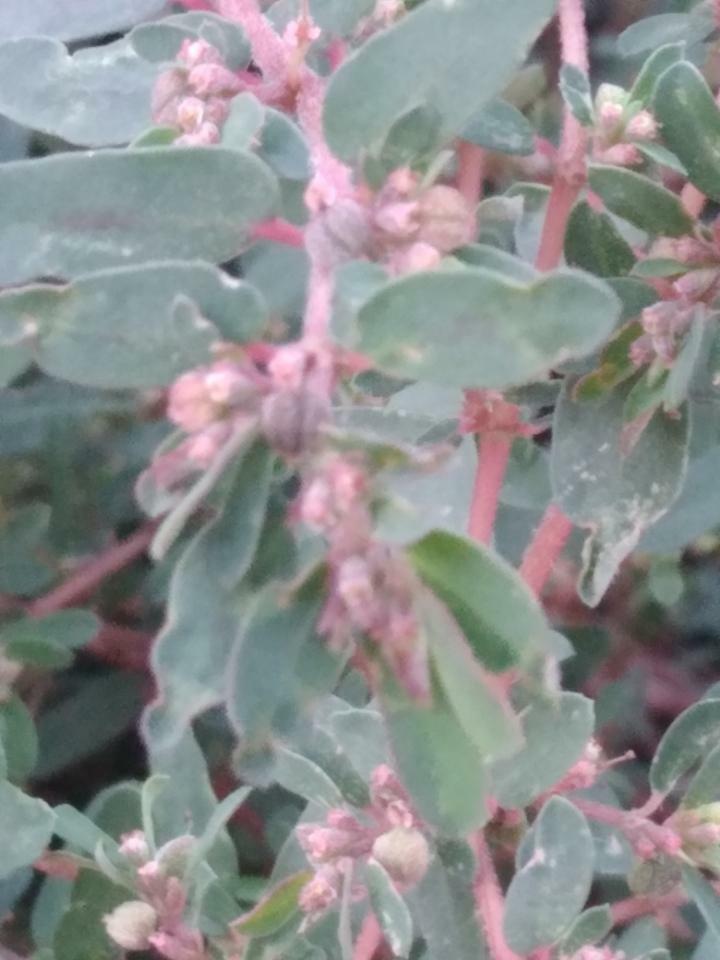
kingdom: Plantae
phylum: Tracheophyta
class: Magnoliopsida
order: Malpighiales
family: Euphorbiaceae
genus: Euphorbia
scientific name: Euphorbia maculata
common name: Spotted spurge
